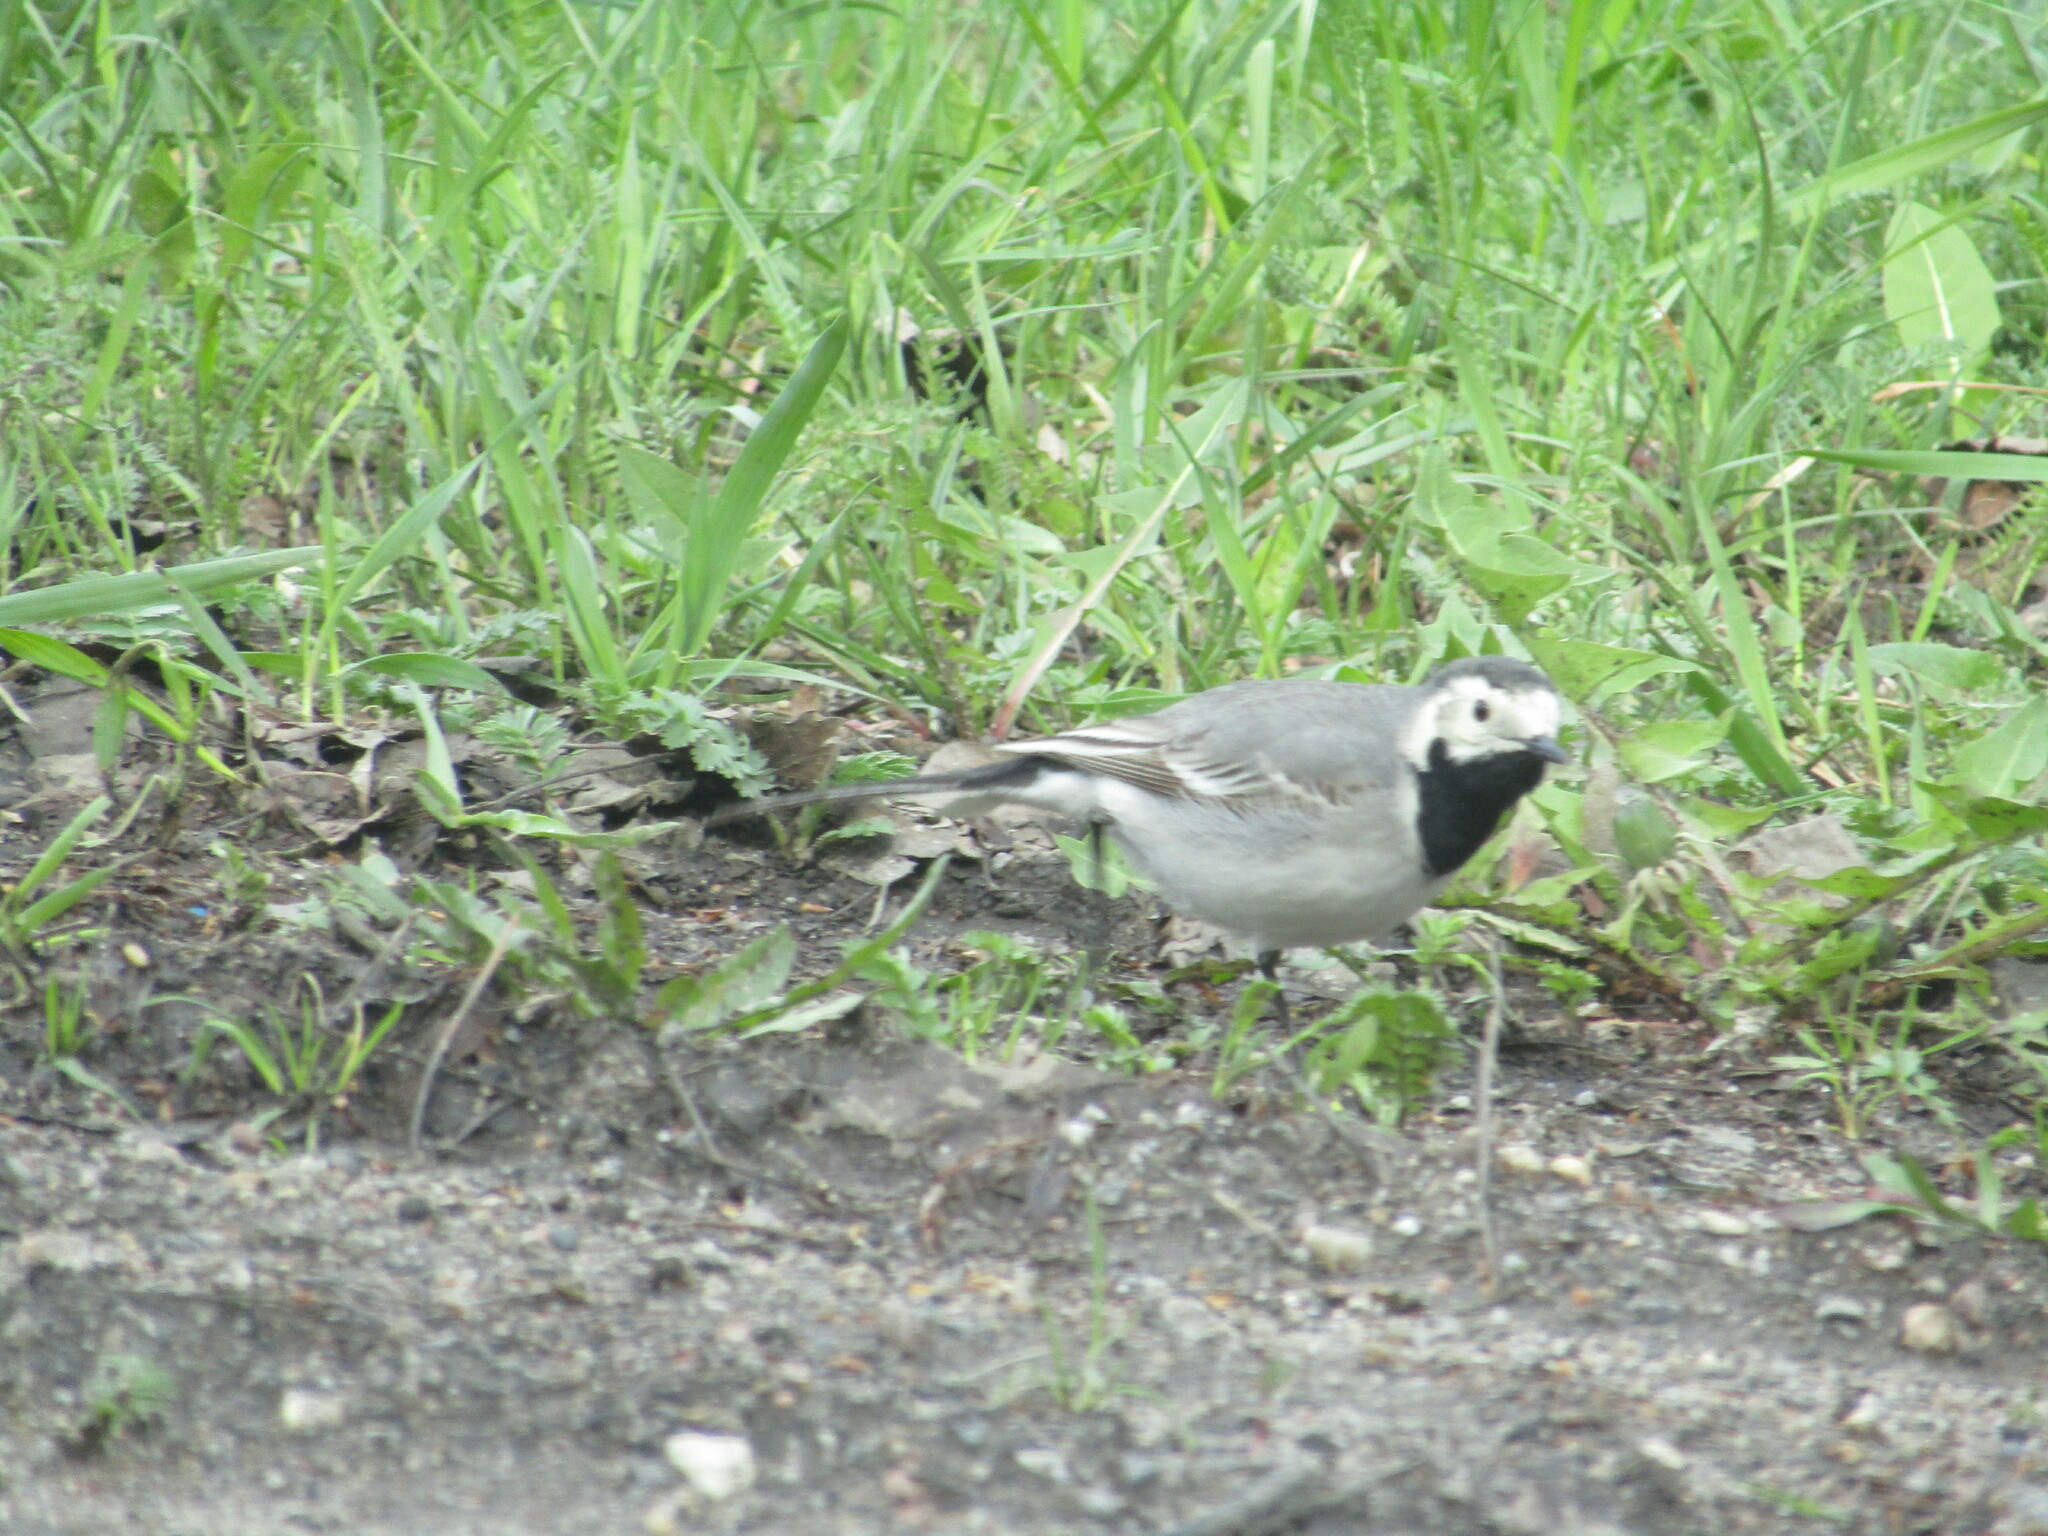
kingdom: Animalia
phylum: Chordata
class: Aves
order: Passeriformes
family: Motacillidae
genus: Motacilla
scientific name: Motacilla alba
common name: White wagtail
